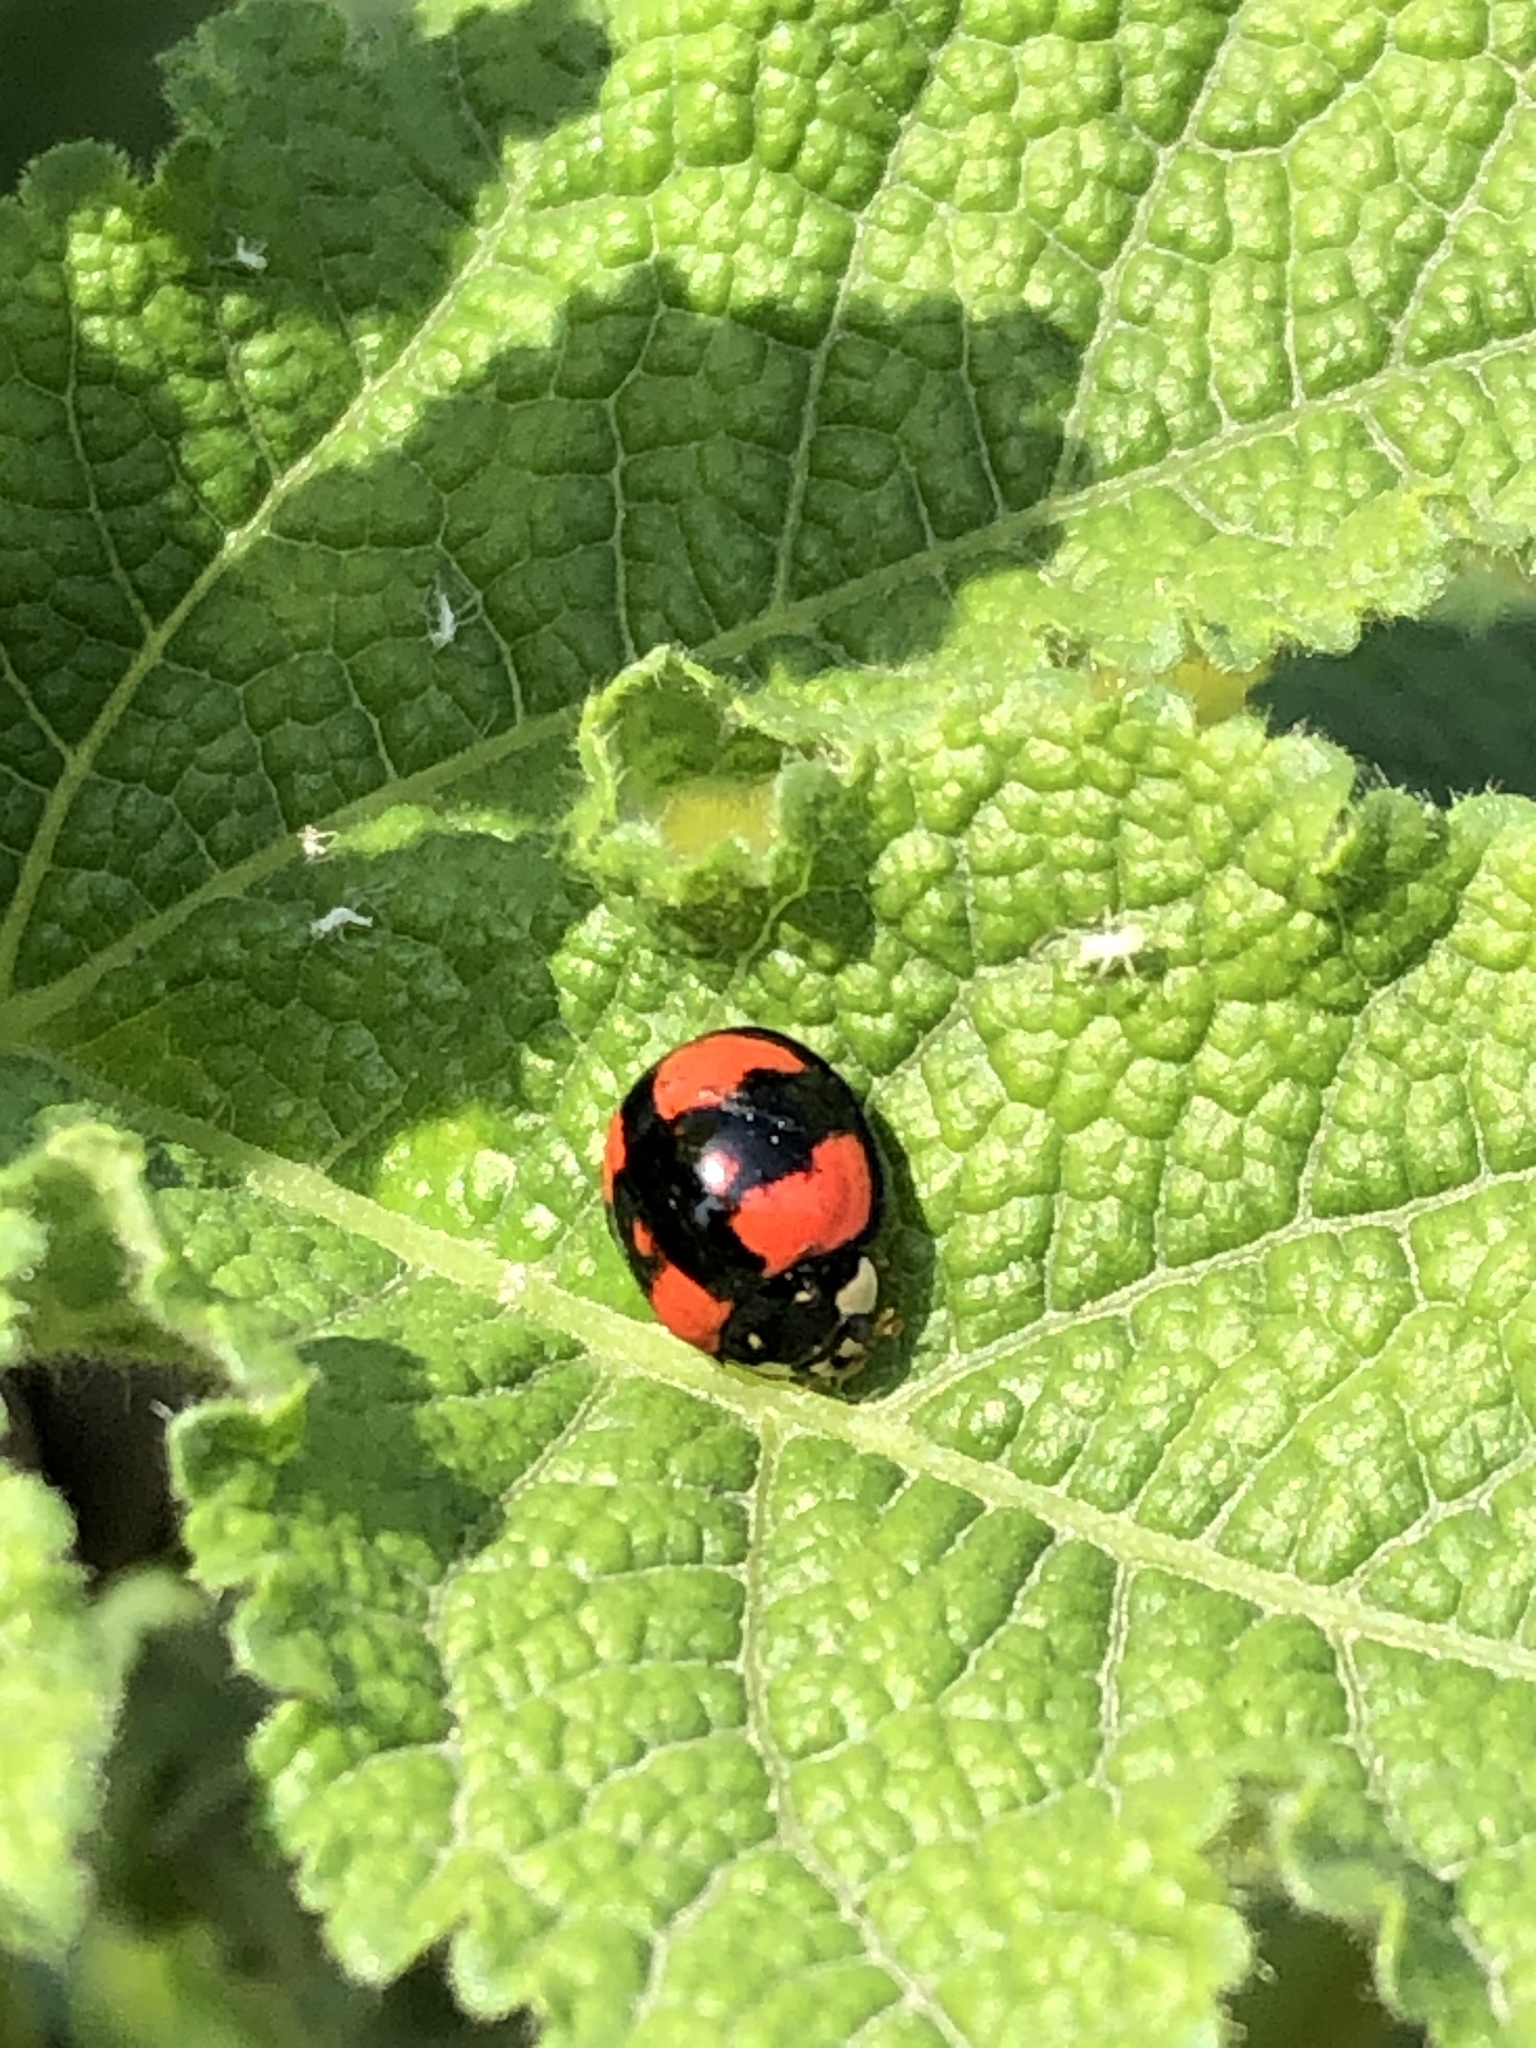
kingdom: Animalia
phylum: Arthropoda
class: Insecta
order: Coleoptera
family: Coccinellidae
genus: Cheilomenes
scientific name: Cheilomenes sexmaculata
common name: Ladybird beetle
